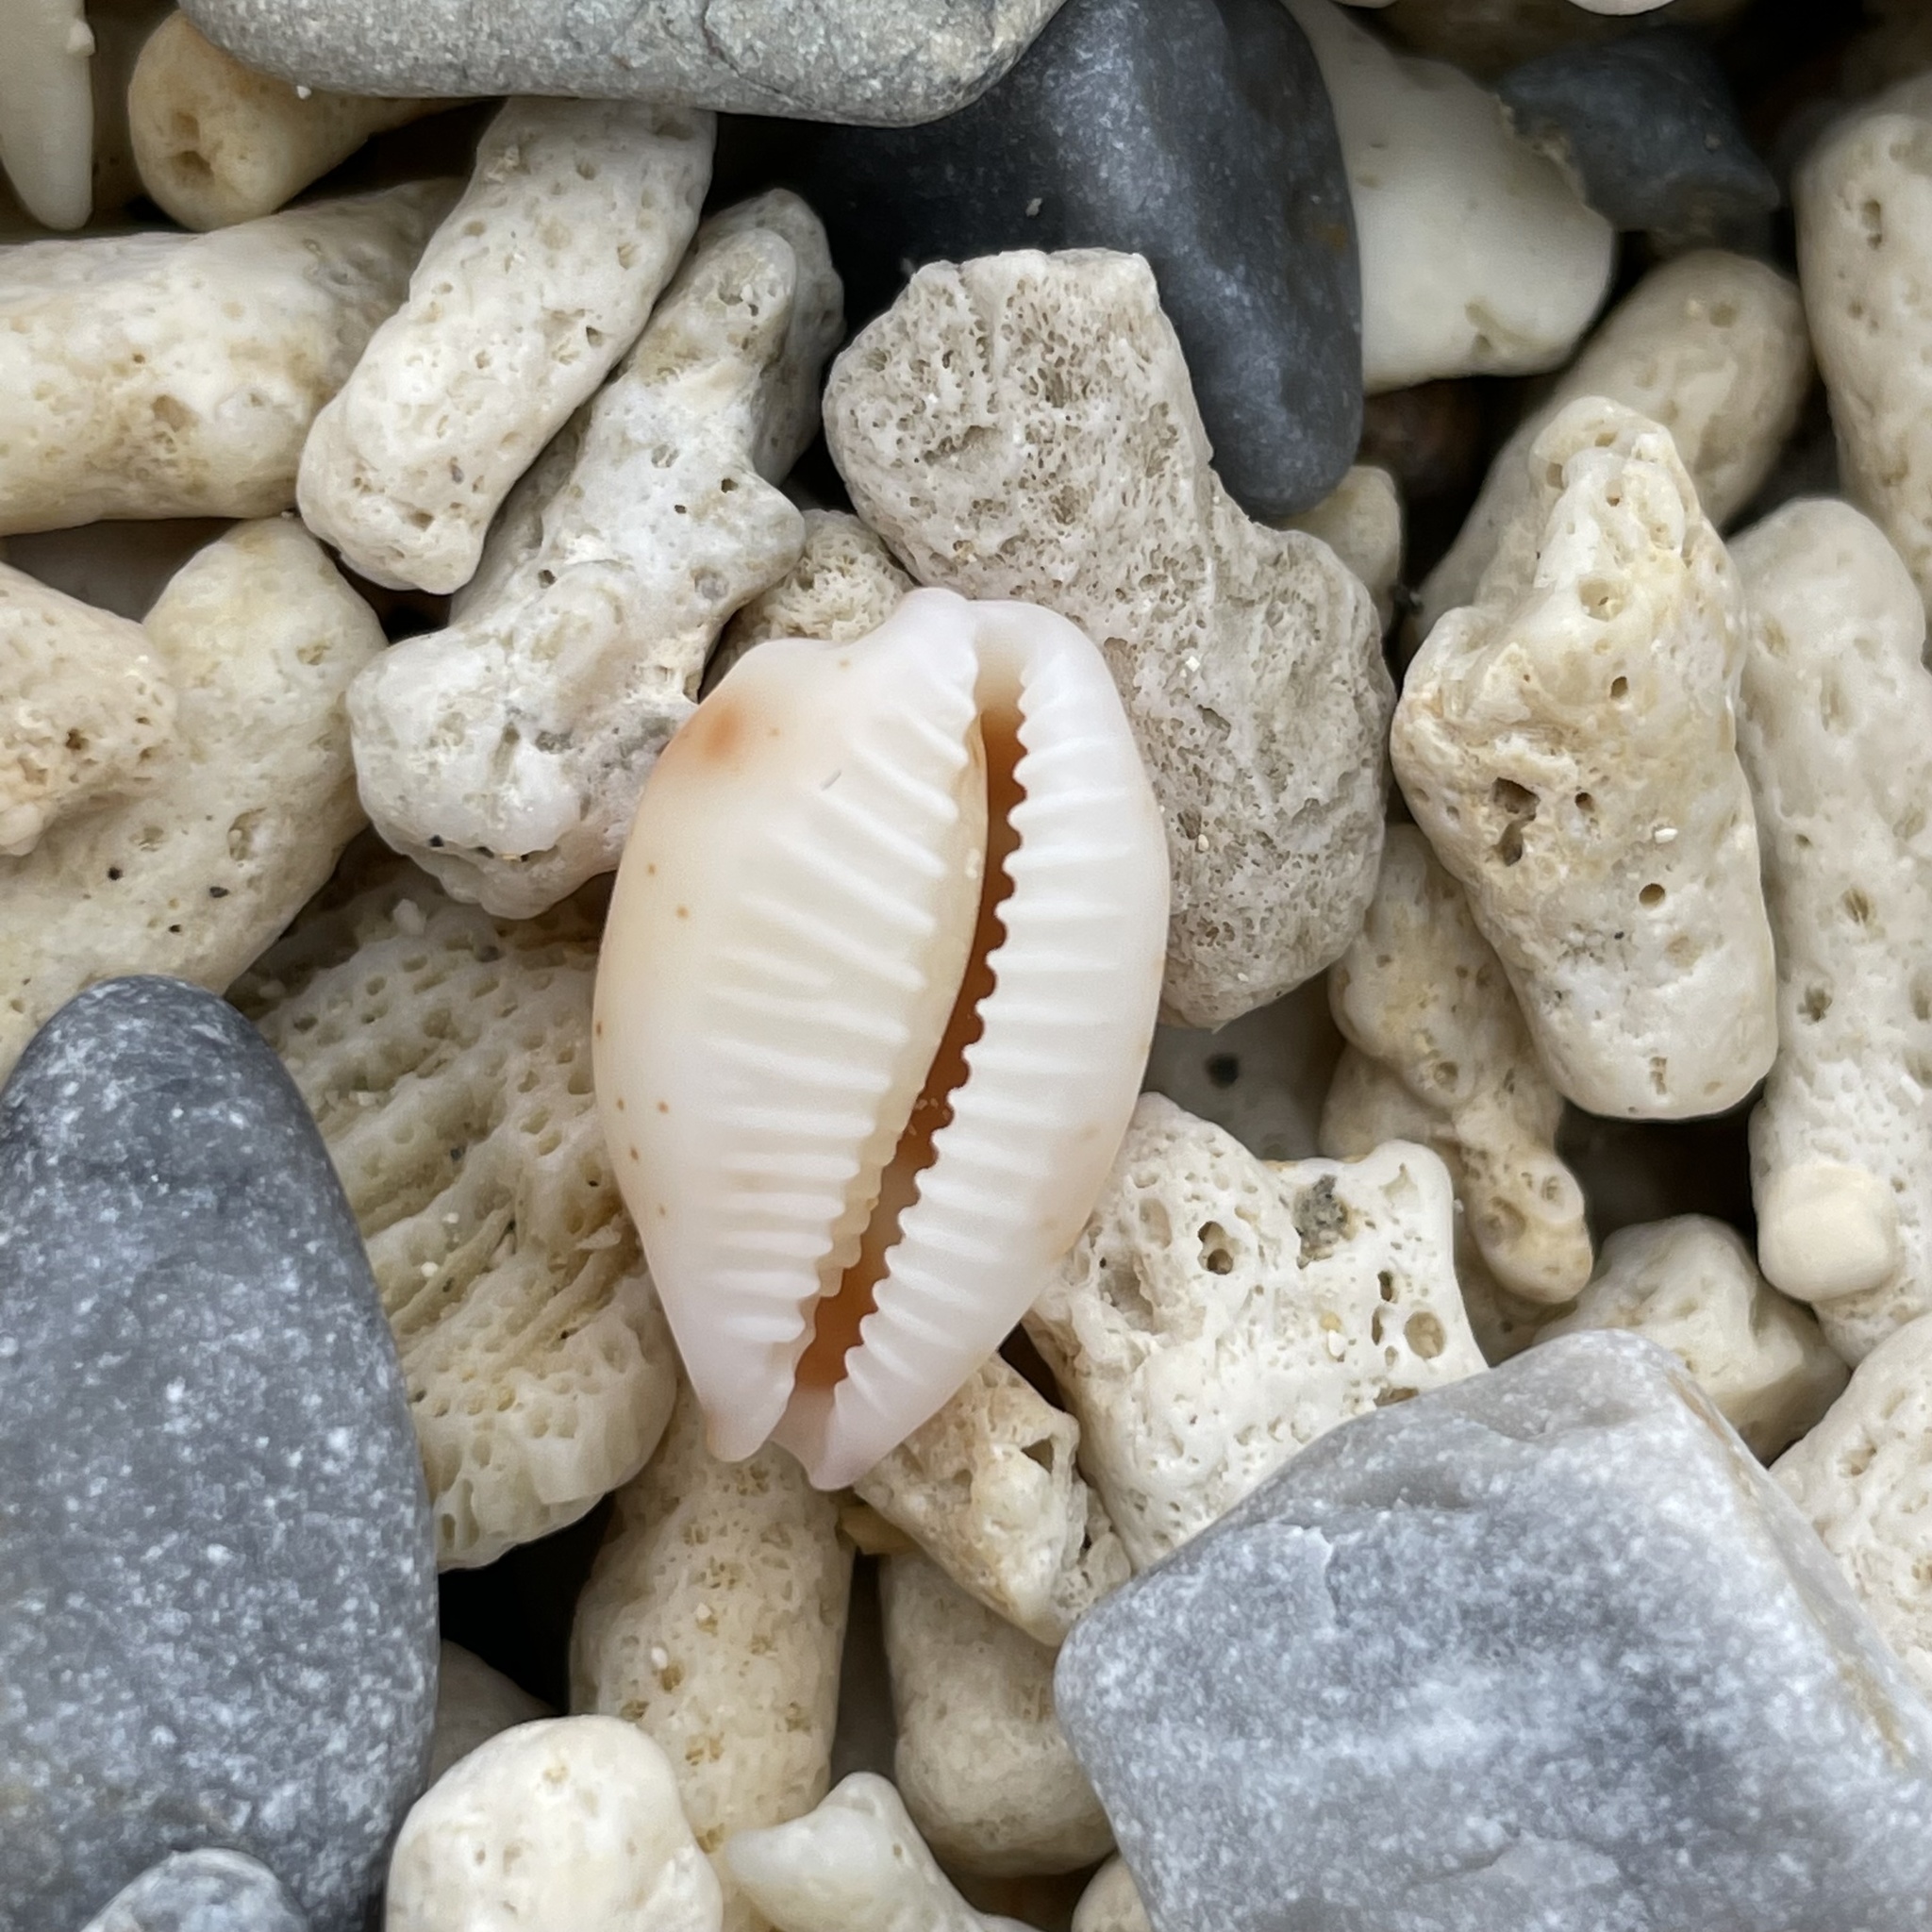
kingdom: Animalia
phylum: Mollusca
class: Gastropoda
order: Littorinimorpha
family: Cypraeidae
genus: Bistolida
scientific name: Bistolida hirundo
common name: Cowrie
